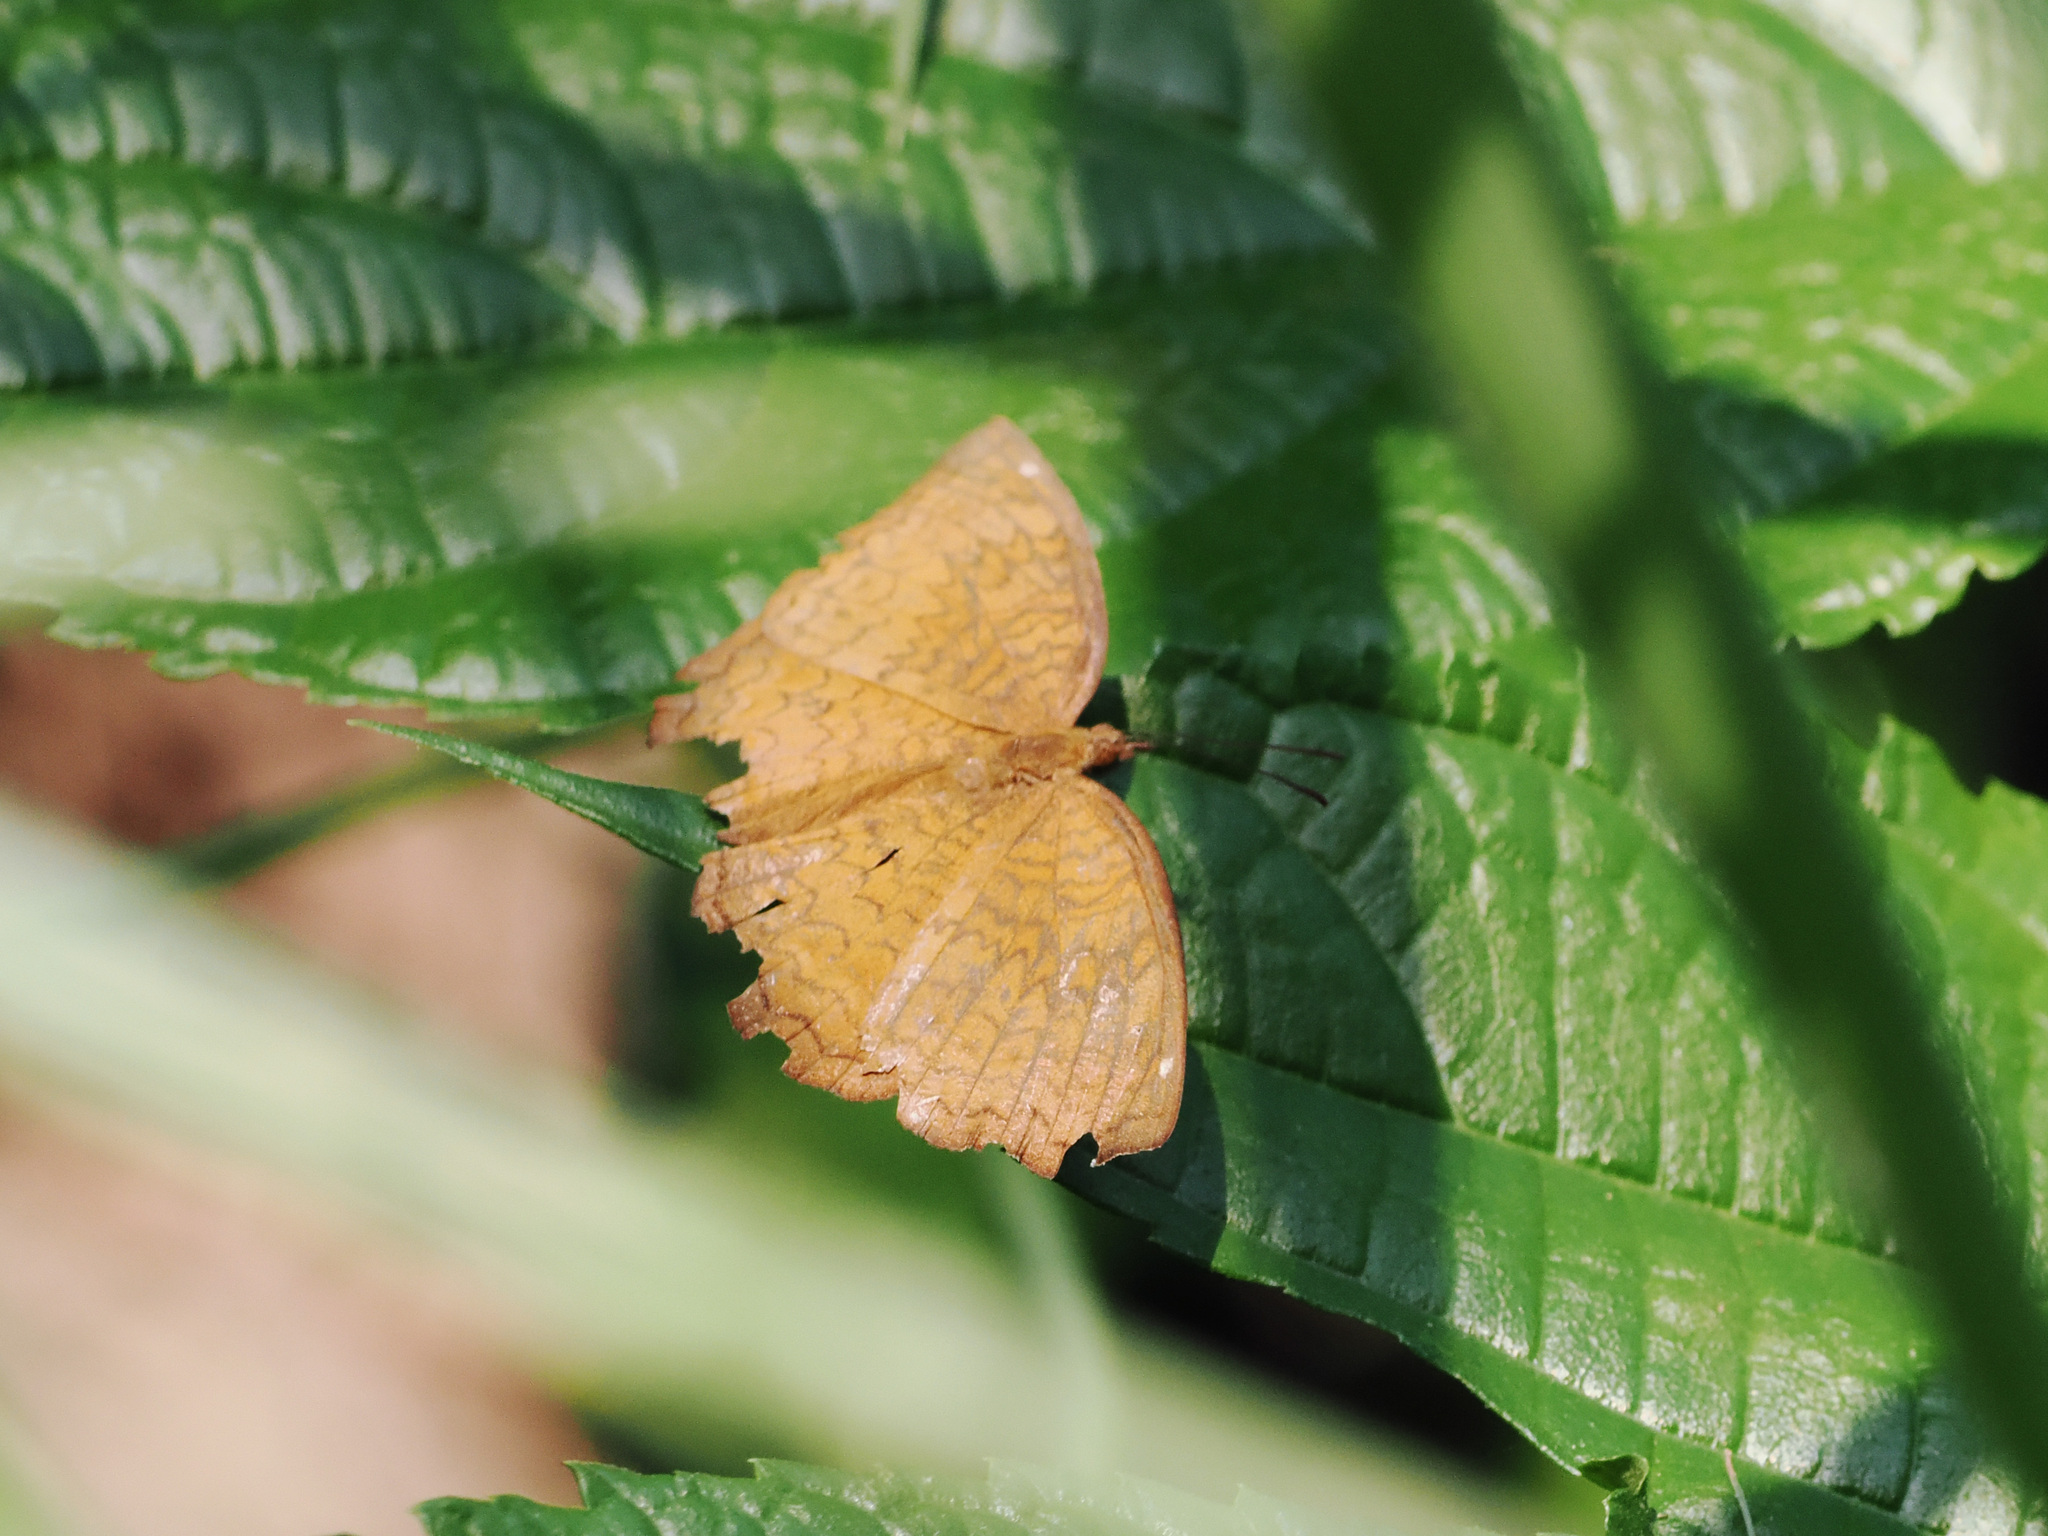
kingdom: Animalia
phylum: Arthropoda
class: Insecta
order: Lepidoptera
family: Nymphalidae
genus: Ariadne
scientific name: Ariadne merione
